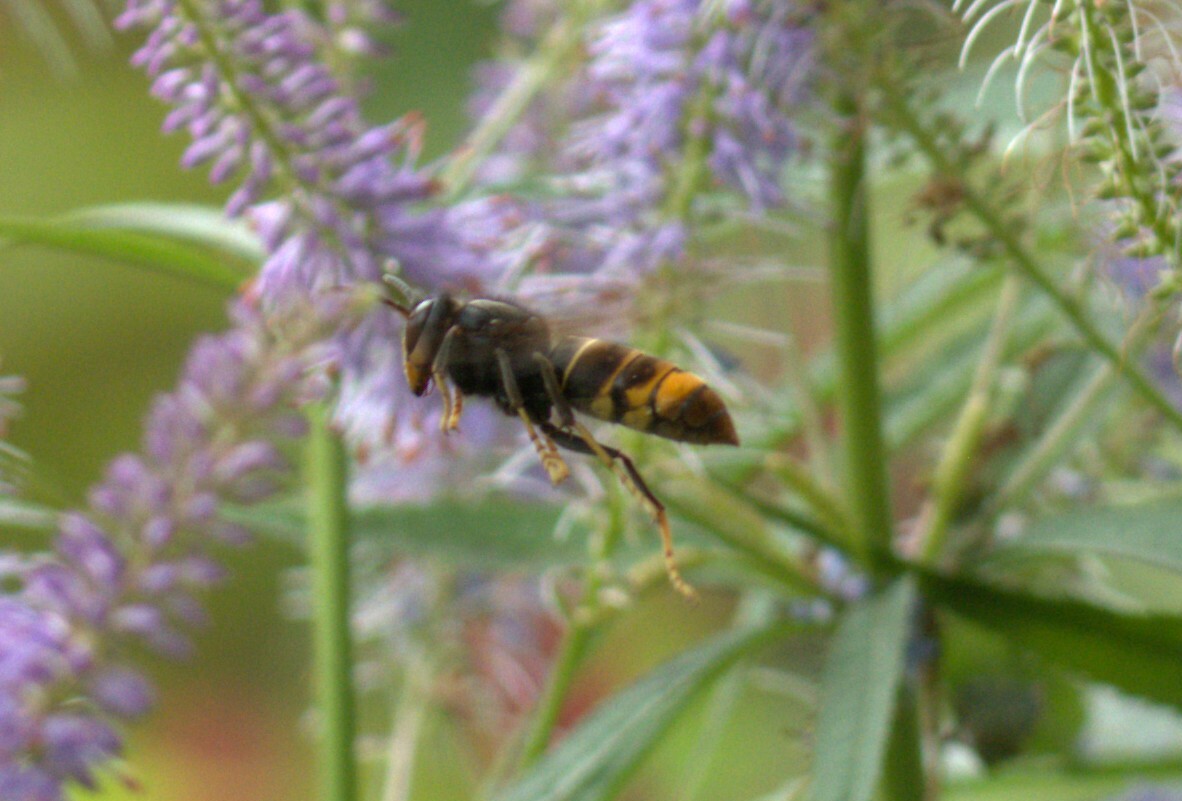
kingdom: Animalia
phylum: Arthropoda
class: Insecta
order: Hymenoptera
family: Vespidae
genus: Vespa
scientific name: Vespa velutina
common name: Asian hornet
